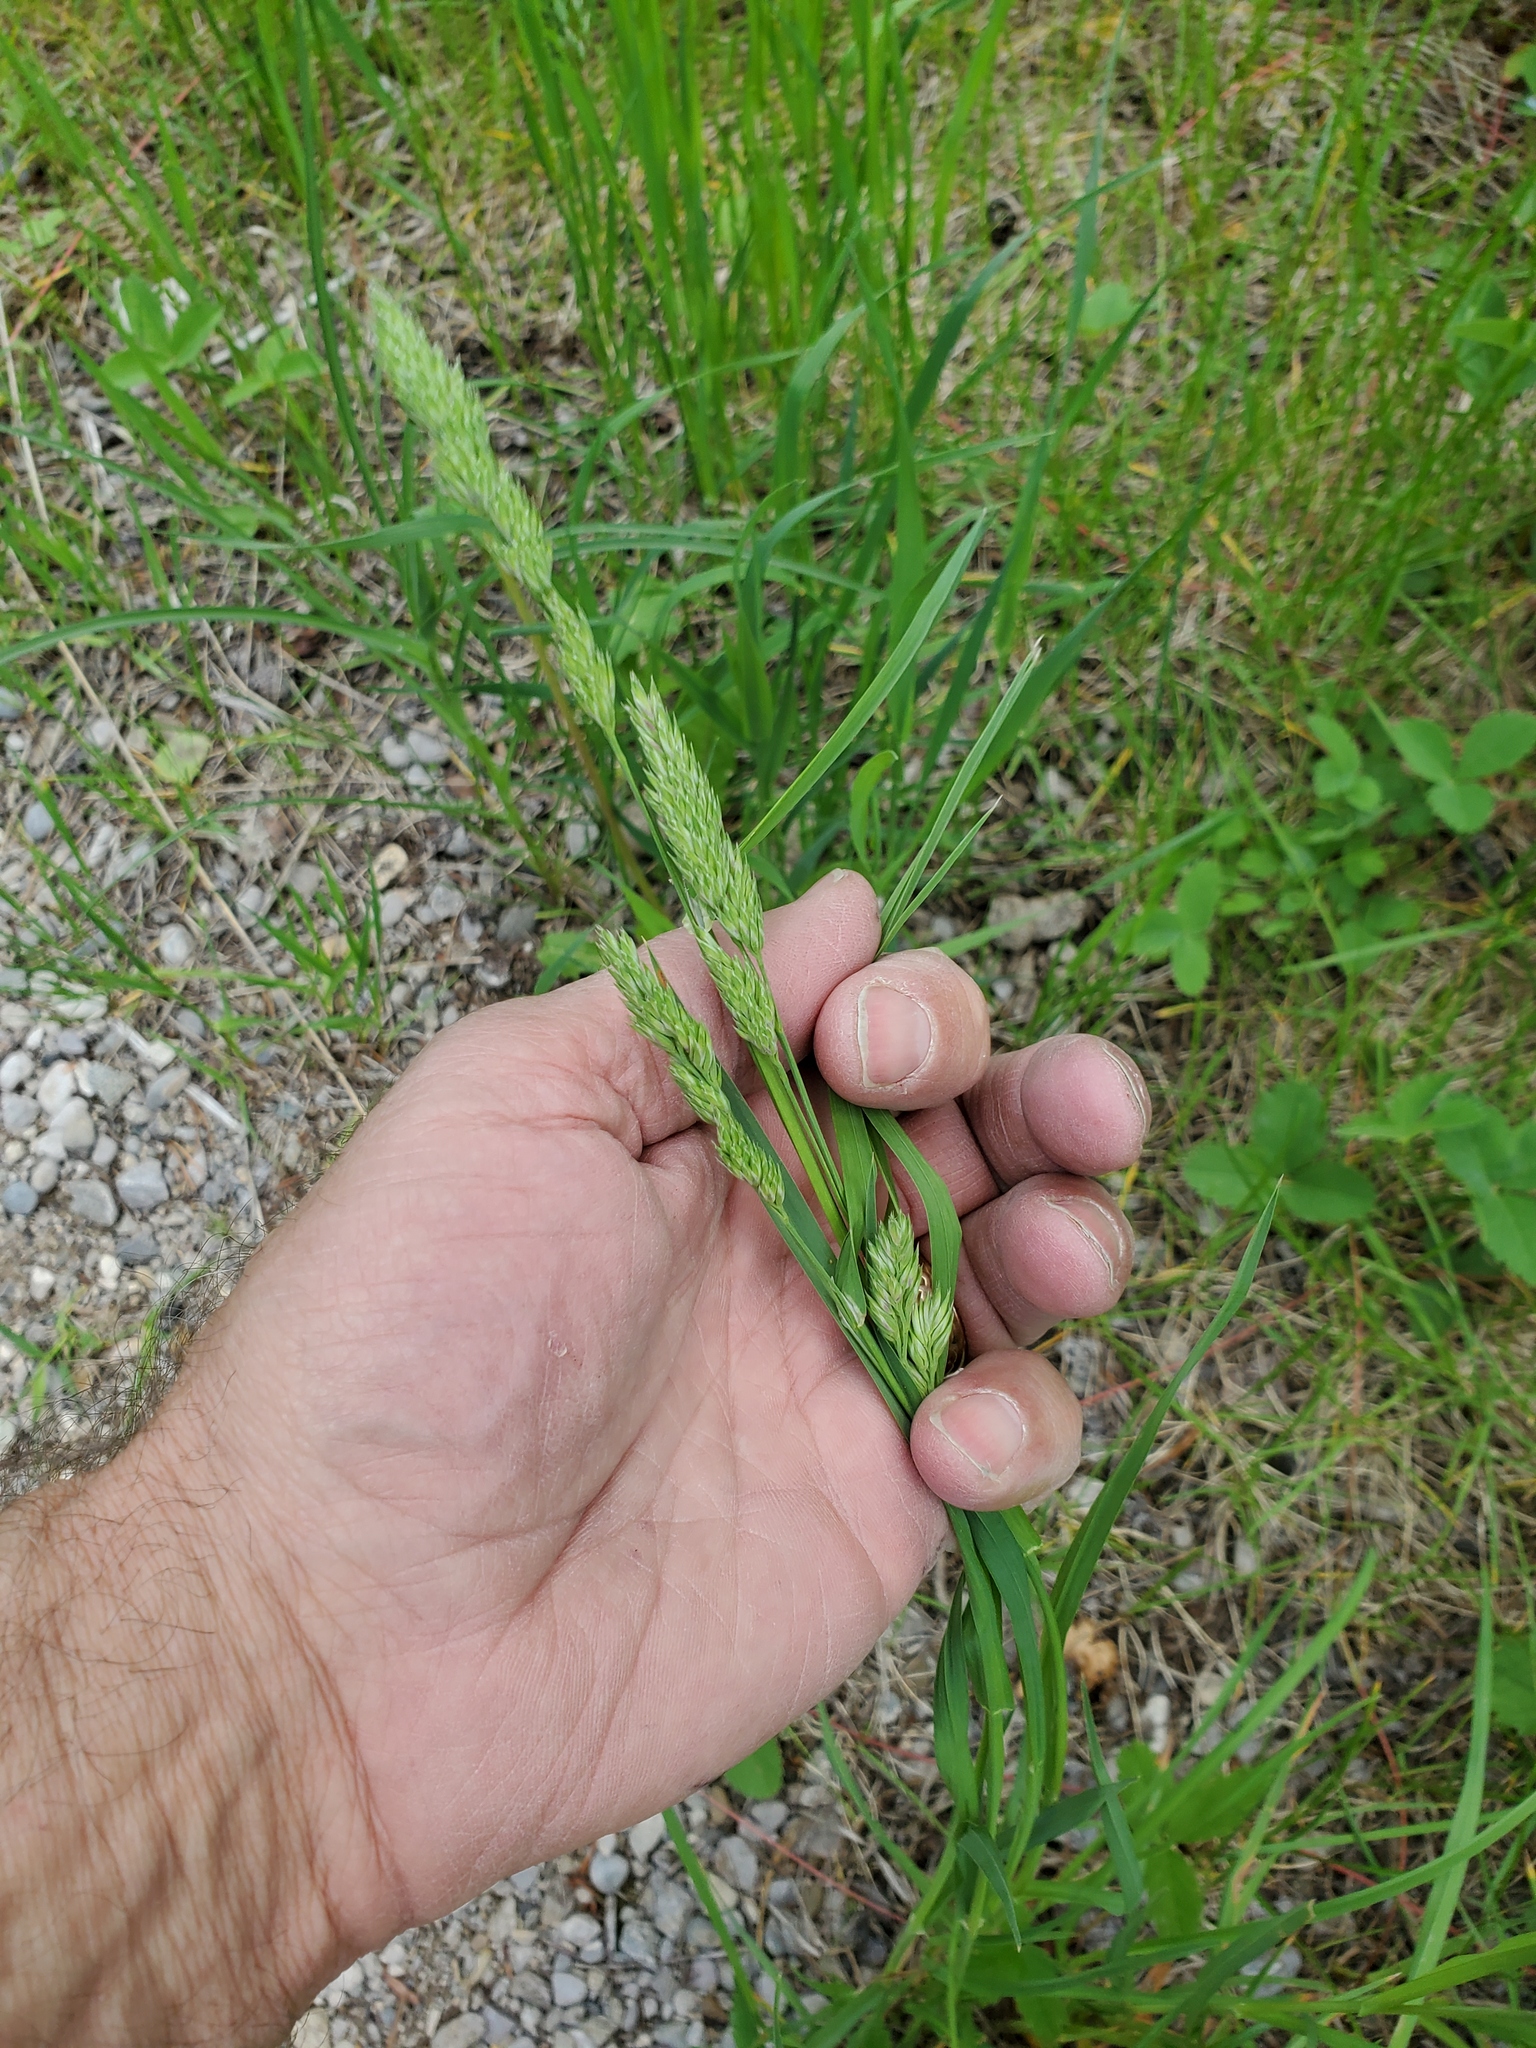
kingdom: Plantae
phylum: Tracheophyta
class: Liliopsida
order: Poales
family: Poaceae
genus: Dactylis
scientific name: Dactylis glomerata
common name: Orchardgrass
